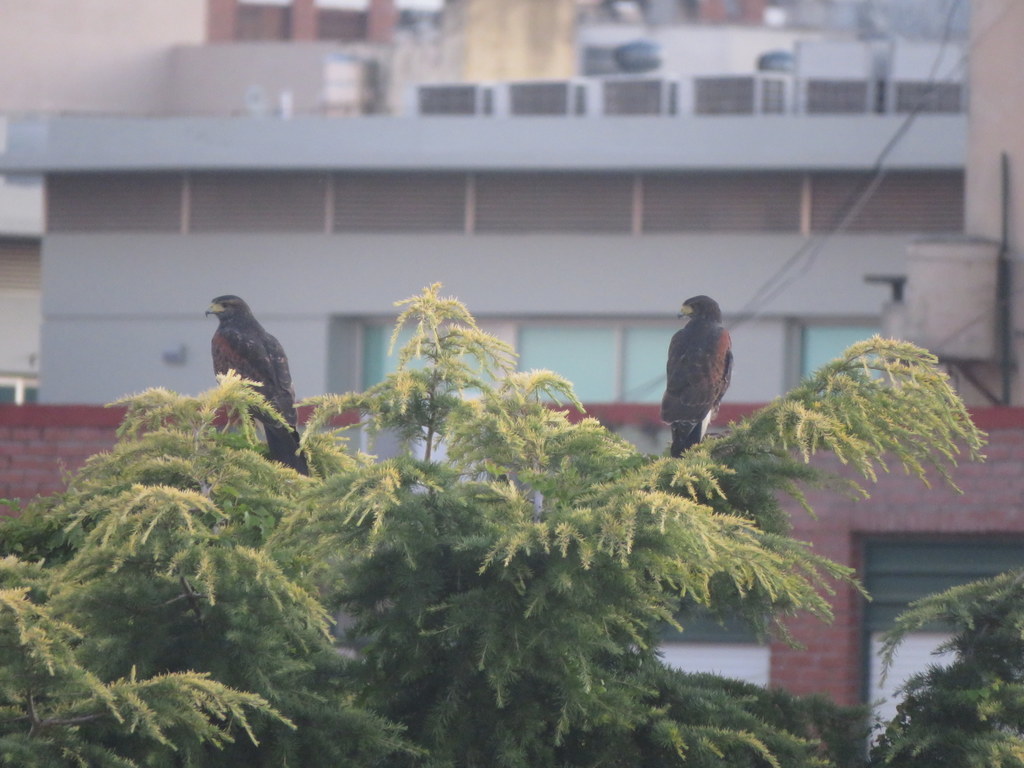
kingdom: Animalia
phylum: Chordata
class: Aves
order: Accipitriformes
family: Accipitridae
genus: Parabuteo
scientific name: Parabuteo unicinctus
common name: Harris's hawk
